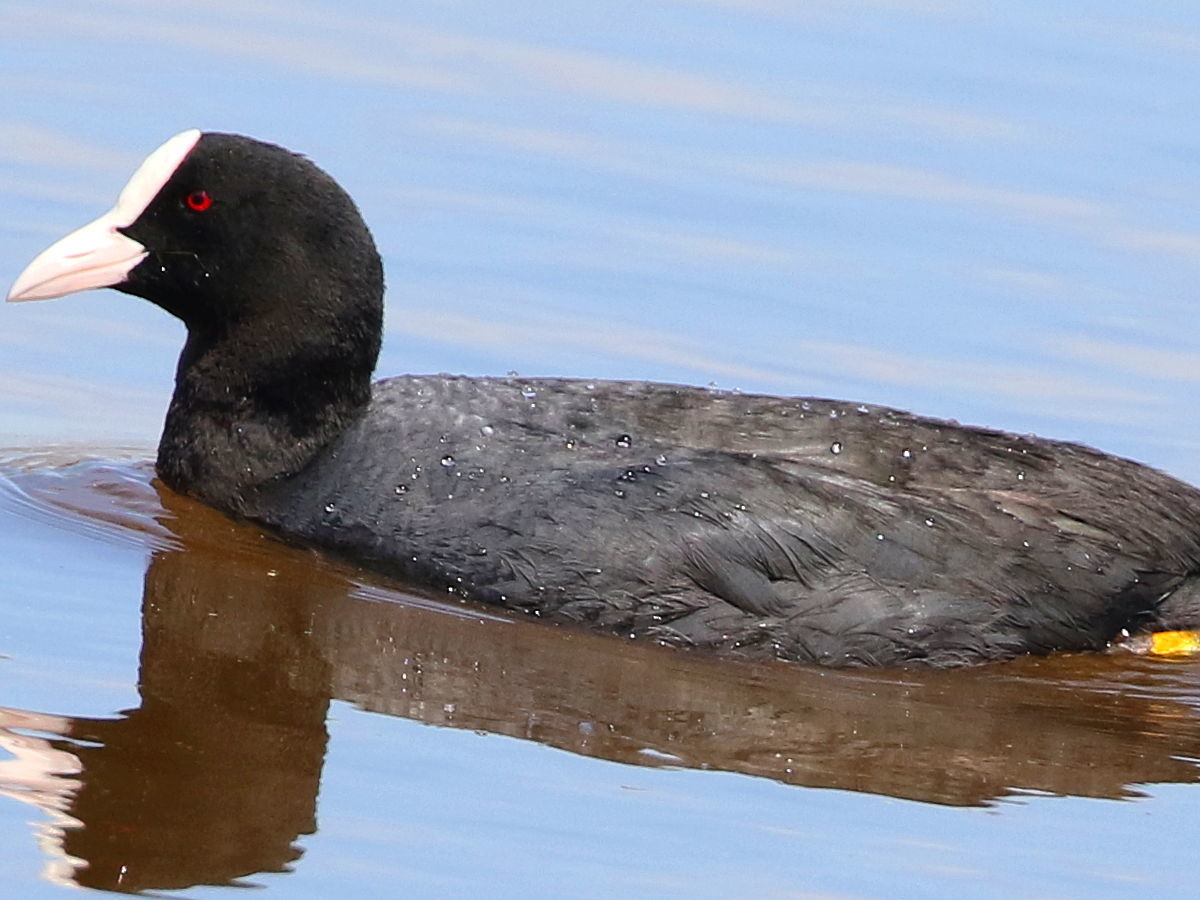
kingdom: Animalia
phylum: Chordata
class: Aves
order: Gruiformes
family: Rallidae
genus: Fulica
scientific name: Fulica atra
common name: Eurasian coot
